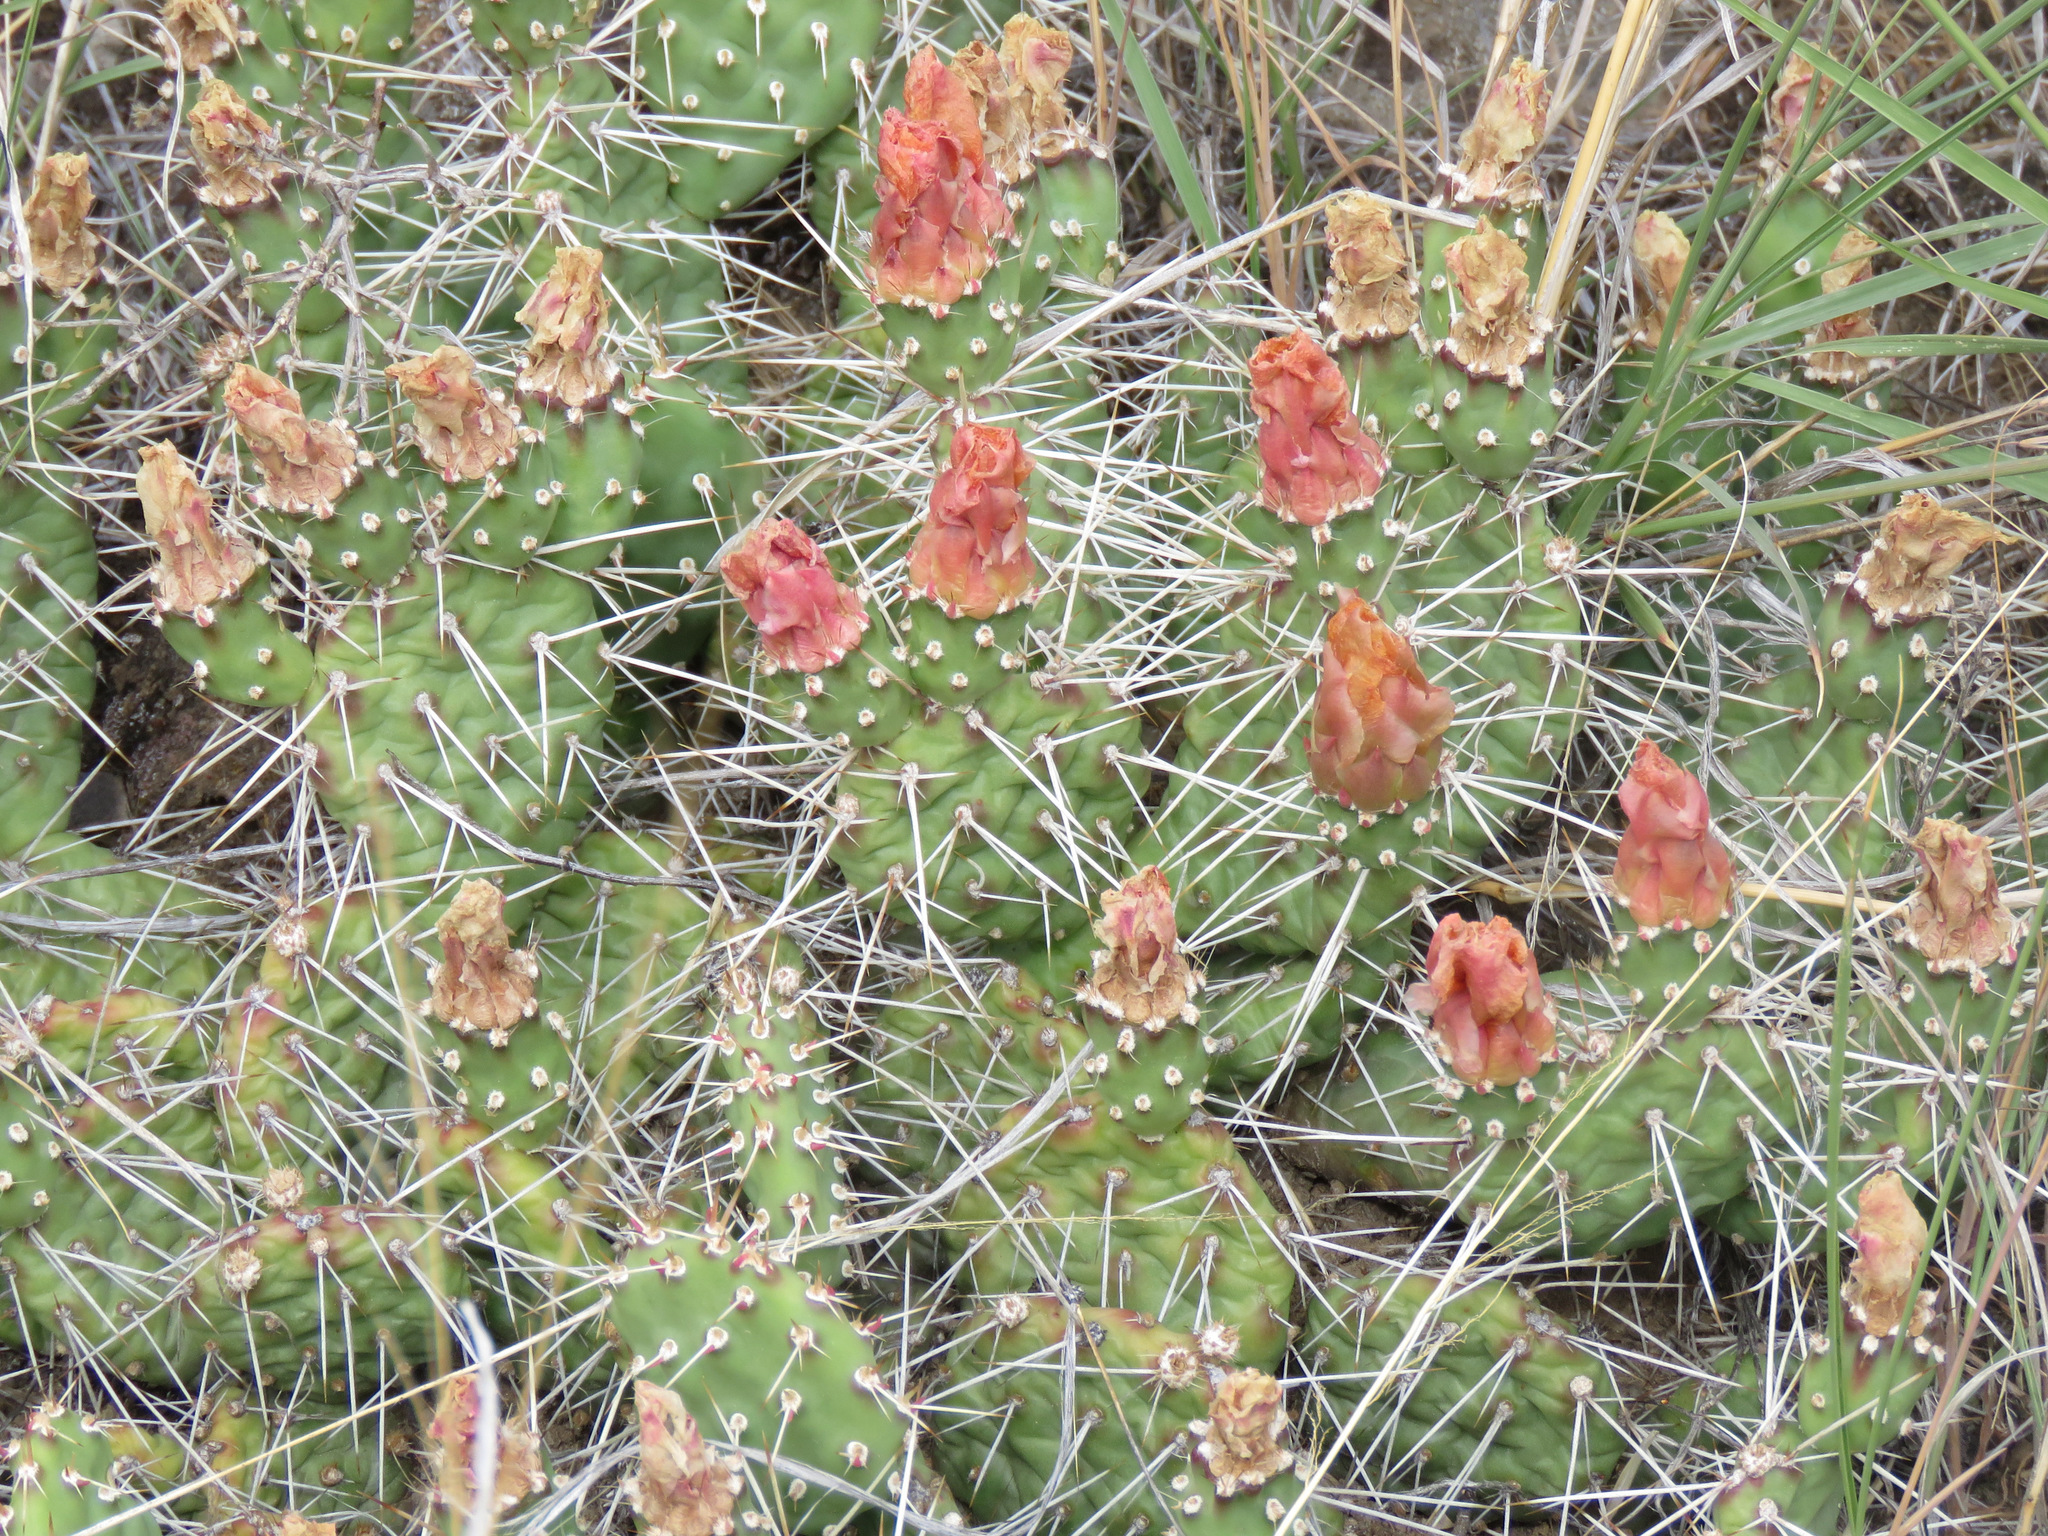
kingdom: Plantae
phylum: Tracheophyta
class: Magnoliopsida
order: Caryophyllales
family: Cactaceae
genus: Opuntia
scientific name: Opuntia fragilis
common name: Brittle cactus
